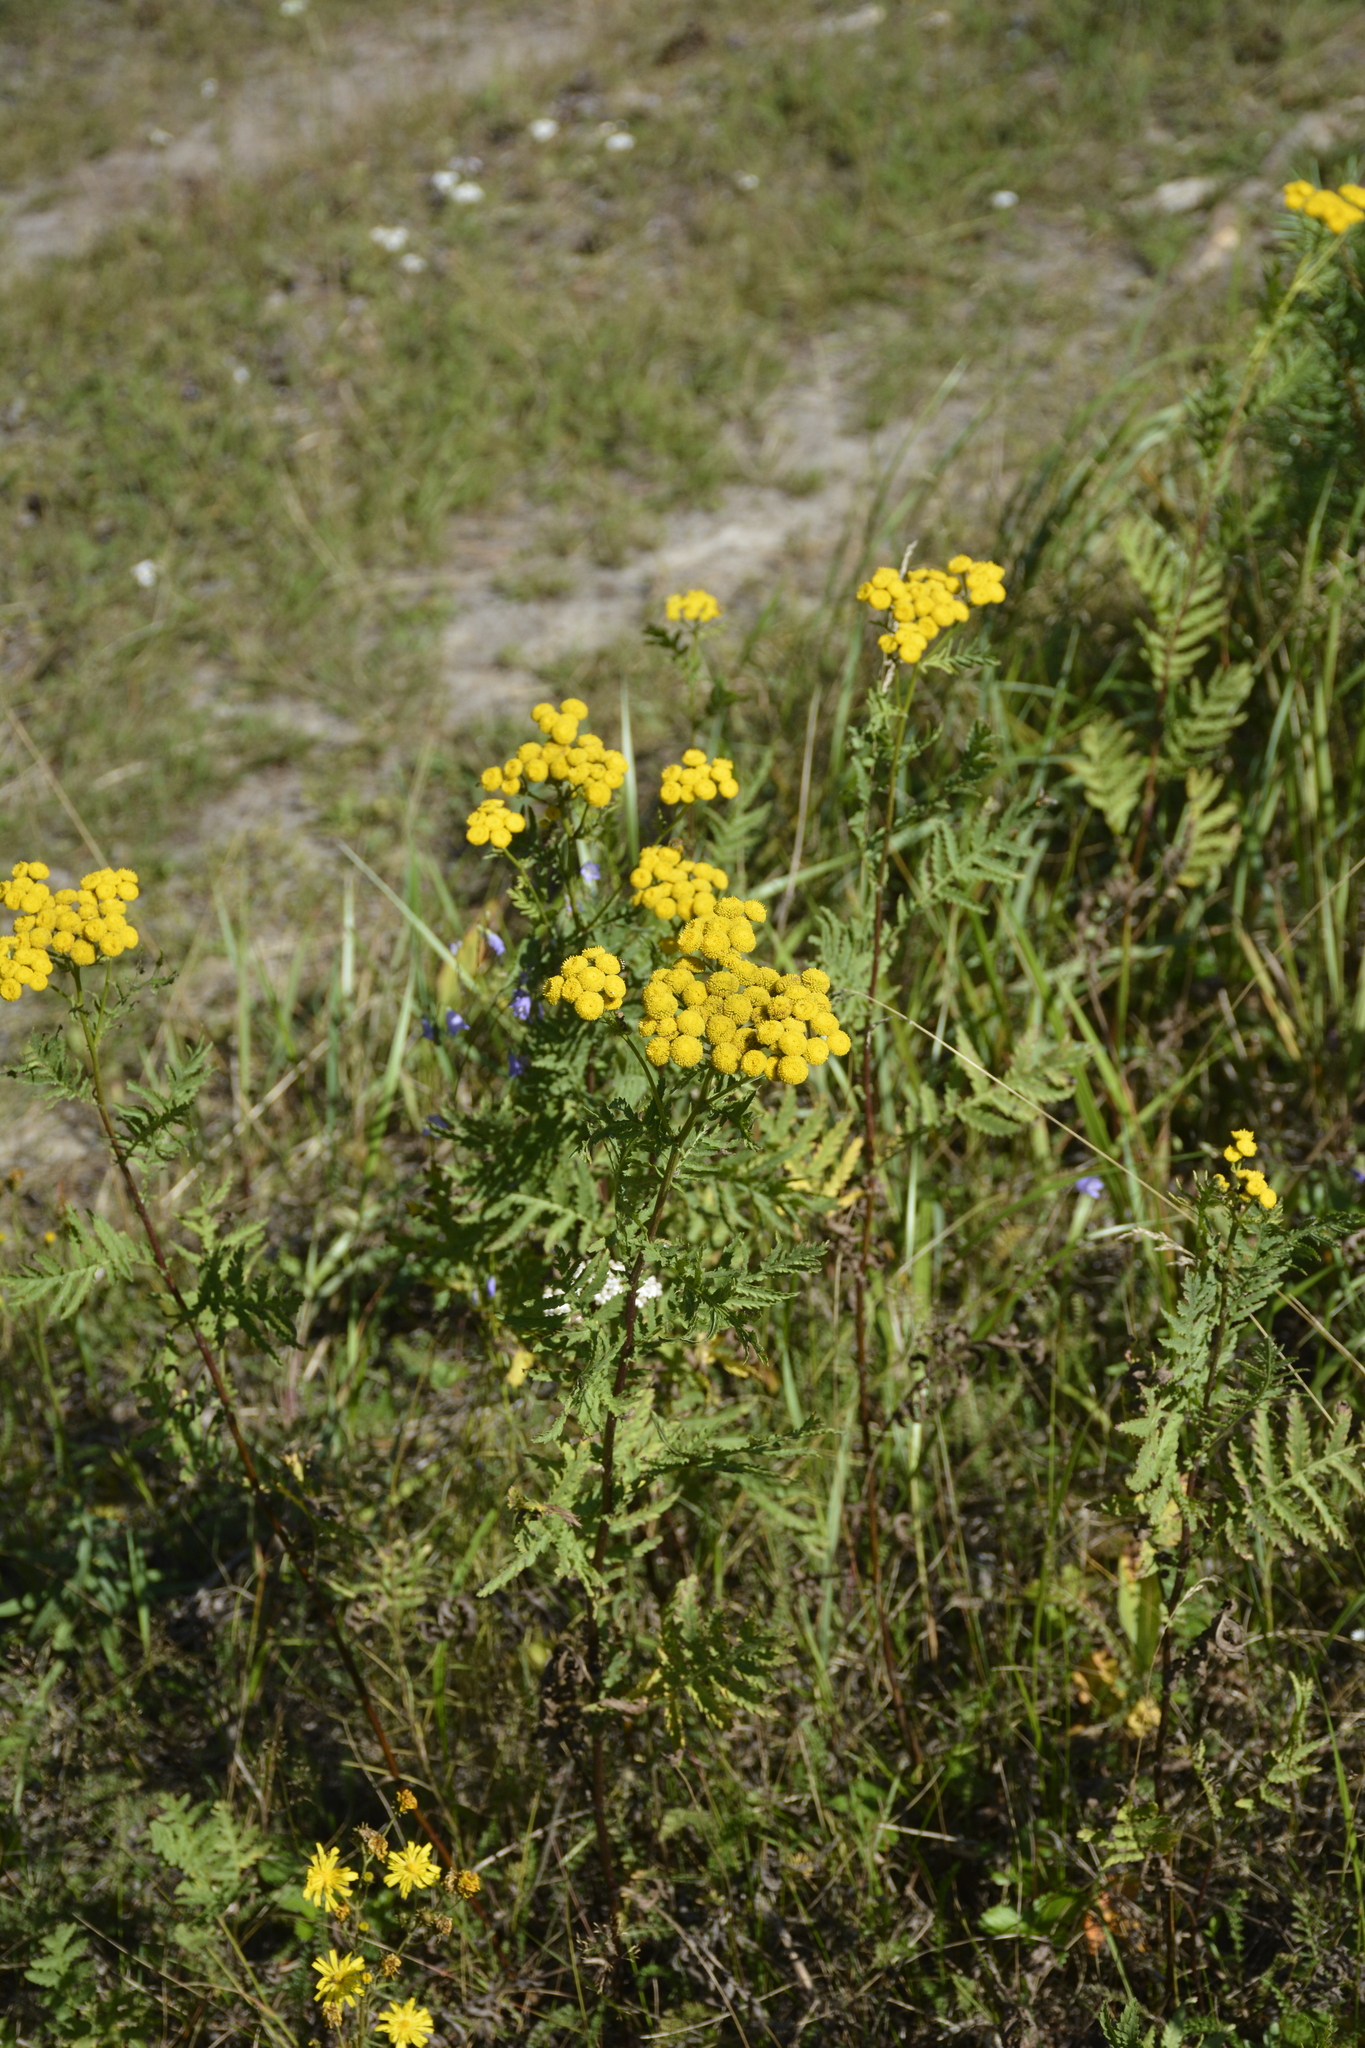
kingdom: Plantae
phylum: Tracheophyta
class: Magnoliopsida
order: Asterales
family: Asteraceae
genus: Tanacetum
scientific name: Tanacetum vulgare
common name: Common tansy
